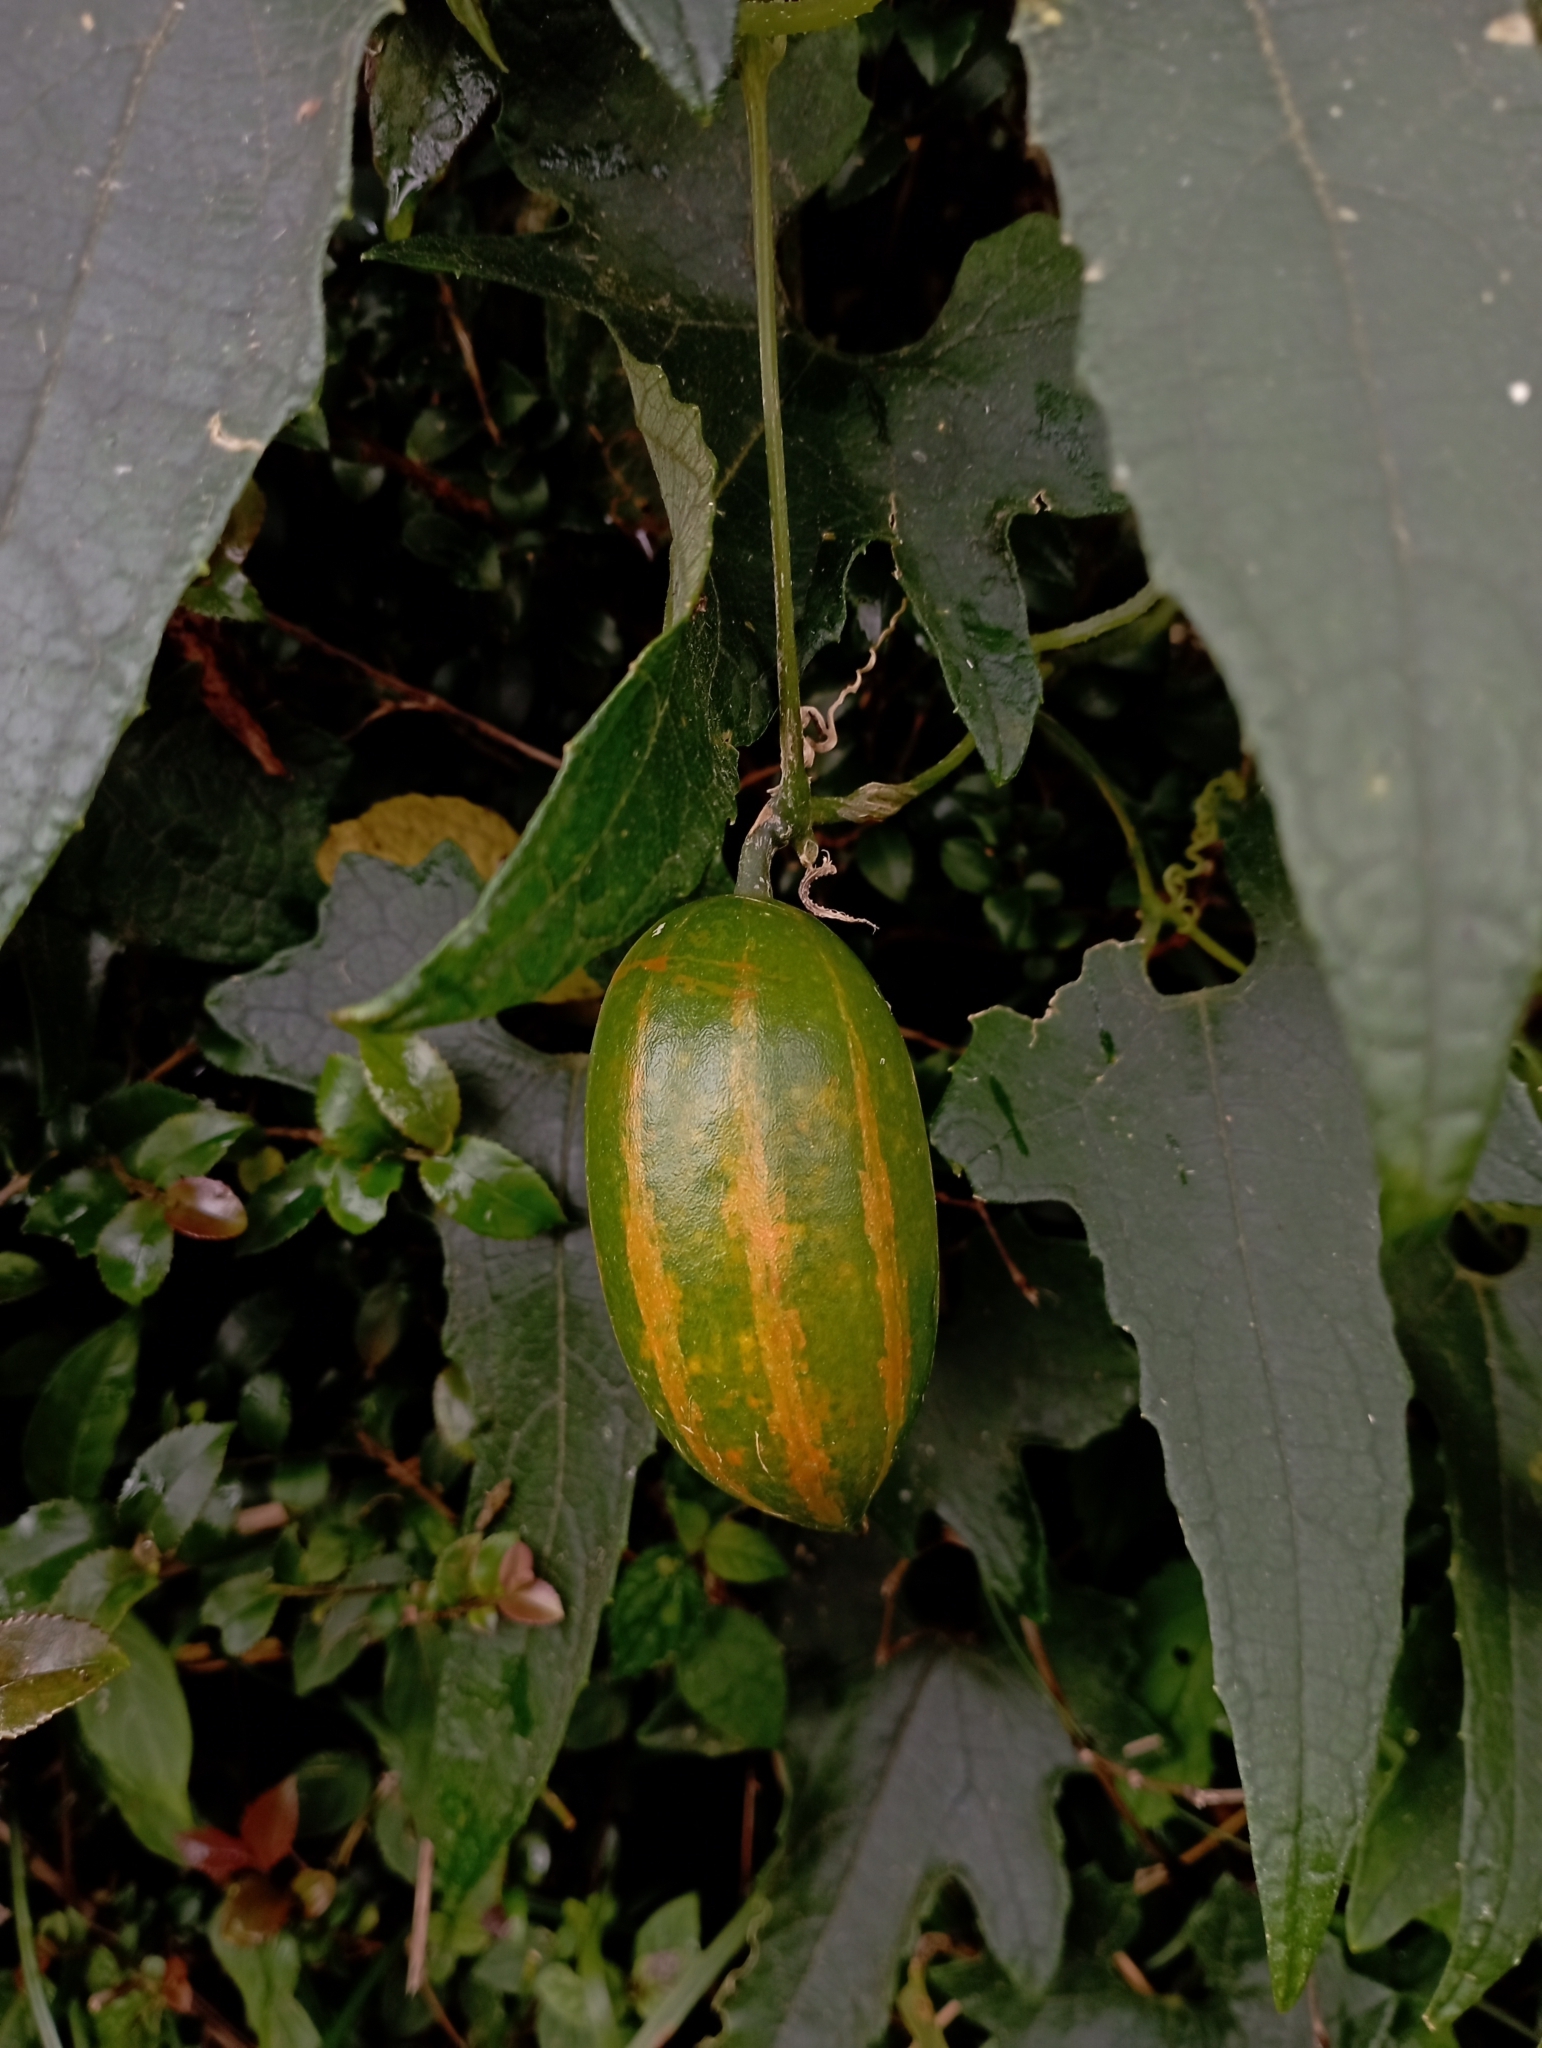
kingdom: Plantae
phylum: Tracheophyta
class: Magnoliopsida
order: Cucurbitales
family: Cucurbitaceae
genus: Trichosanthes
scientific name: Trichosanthes cucumeroides
